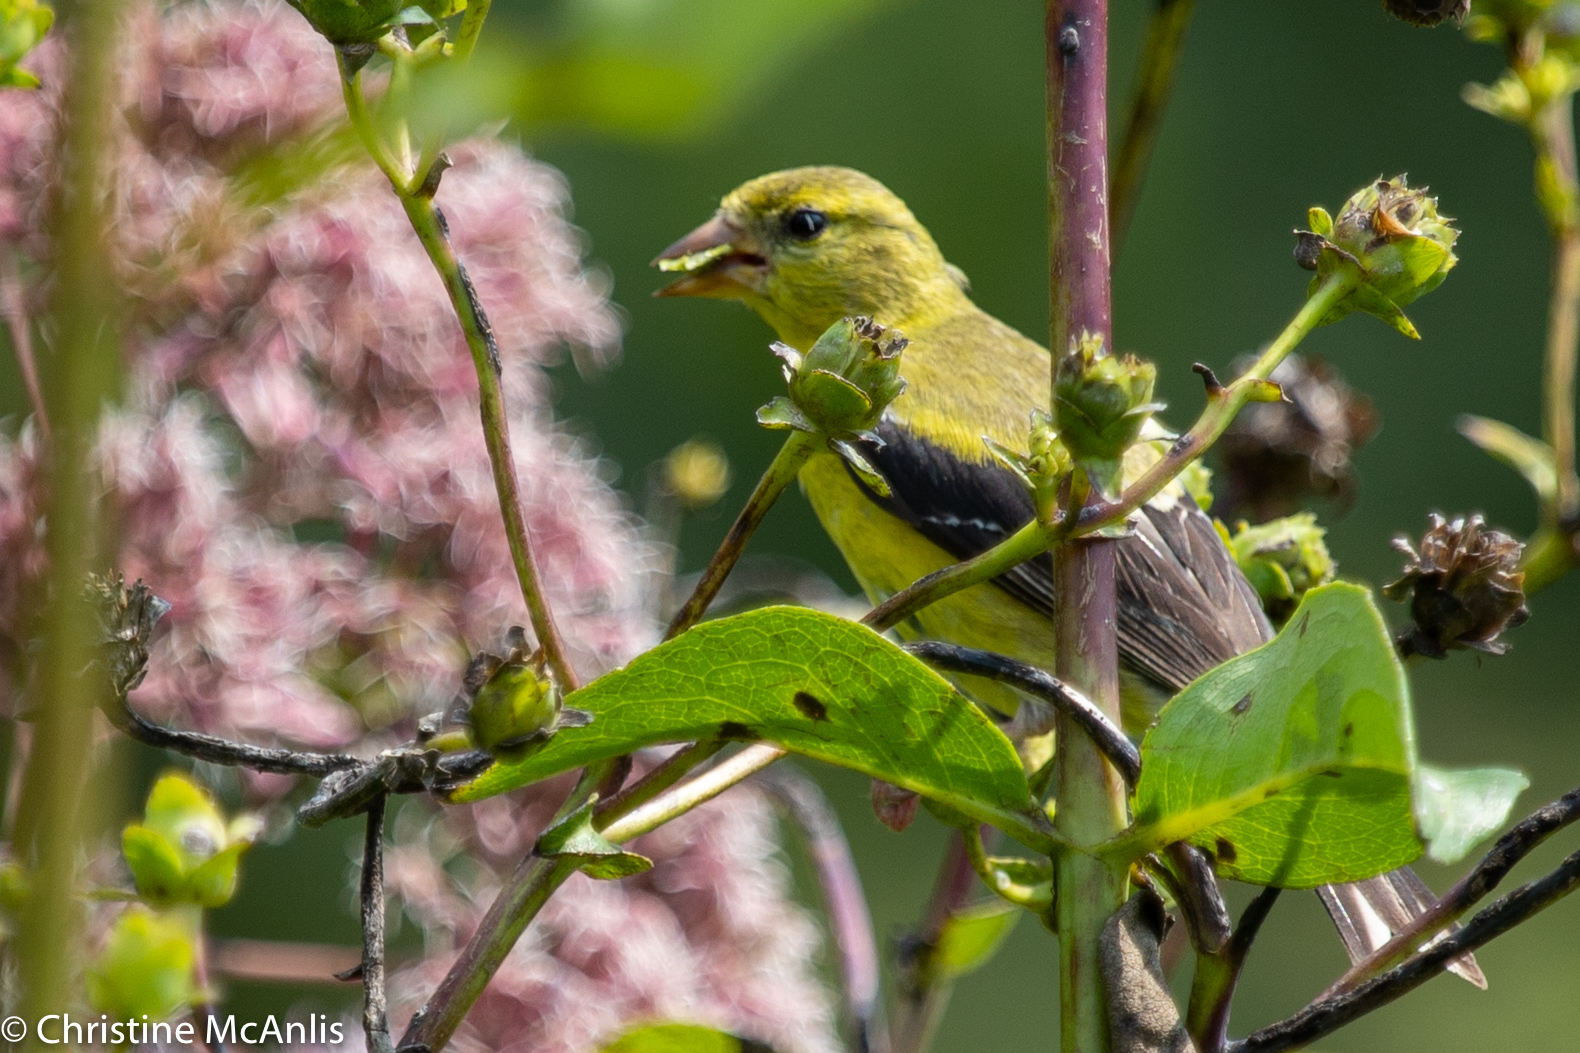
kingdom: Animalia
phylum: Chordata
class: Aves
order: Passeriformes
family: Fringillidae
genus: Spinus
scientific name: Spinus tristis
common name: American goldfinch
